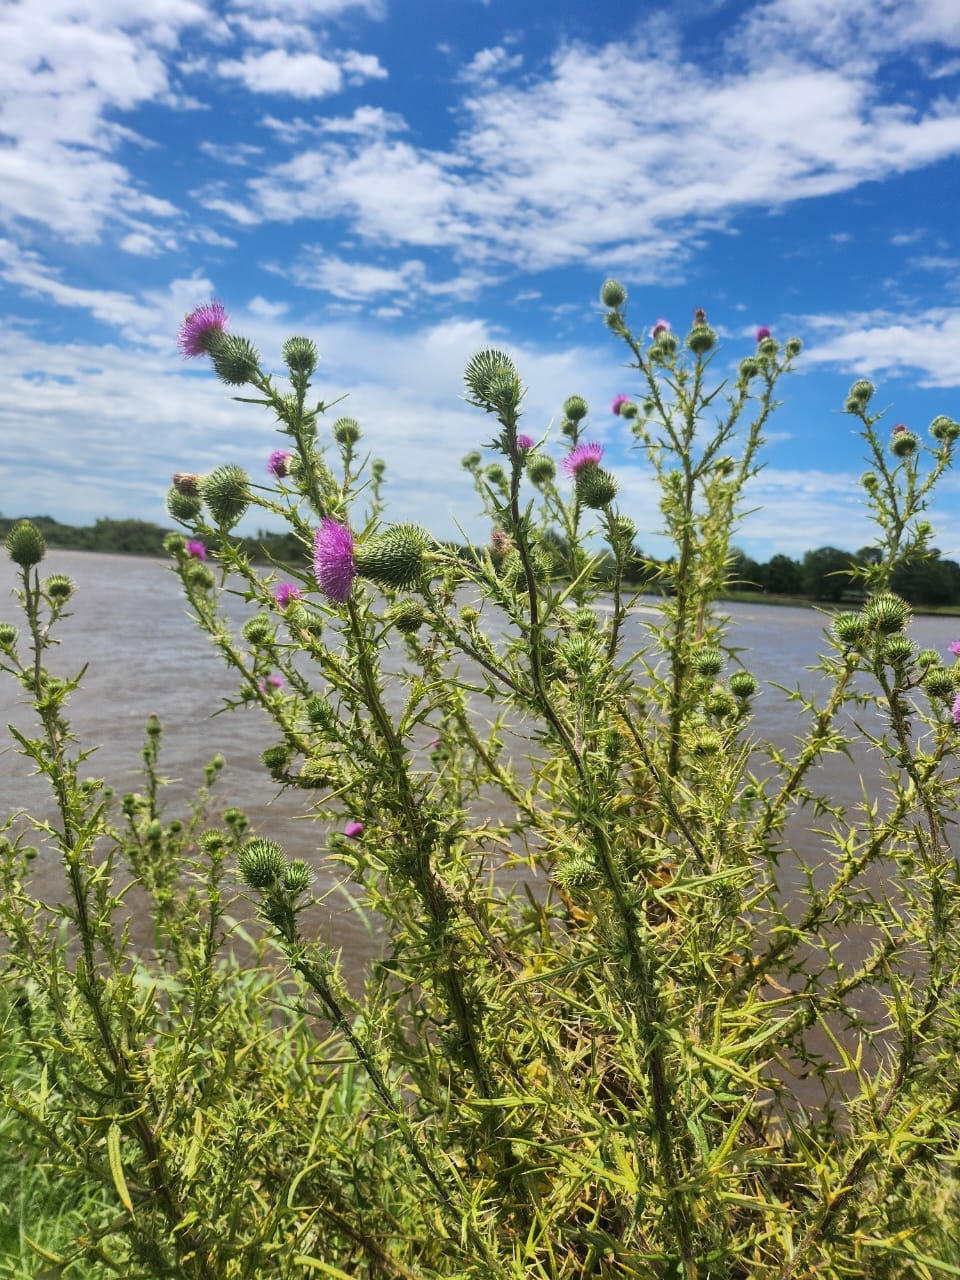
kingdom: Plantae
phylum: Tracheophyta
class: Magnoliopsida
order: Asterales
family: Asteraceae
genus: Cirsium
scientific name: Cirsium vulgare
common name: Bull thistle
